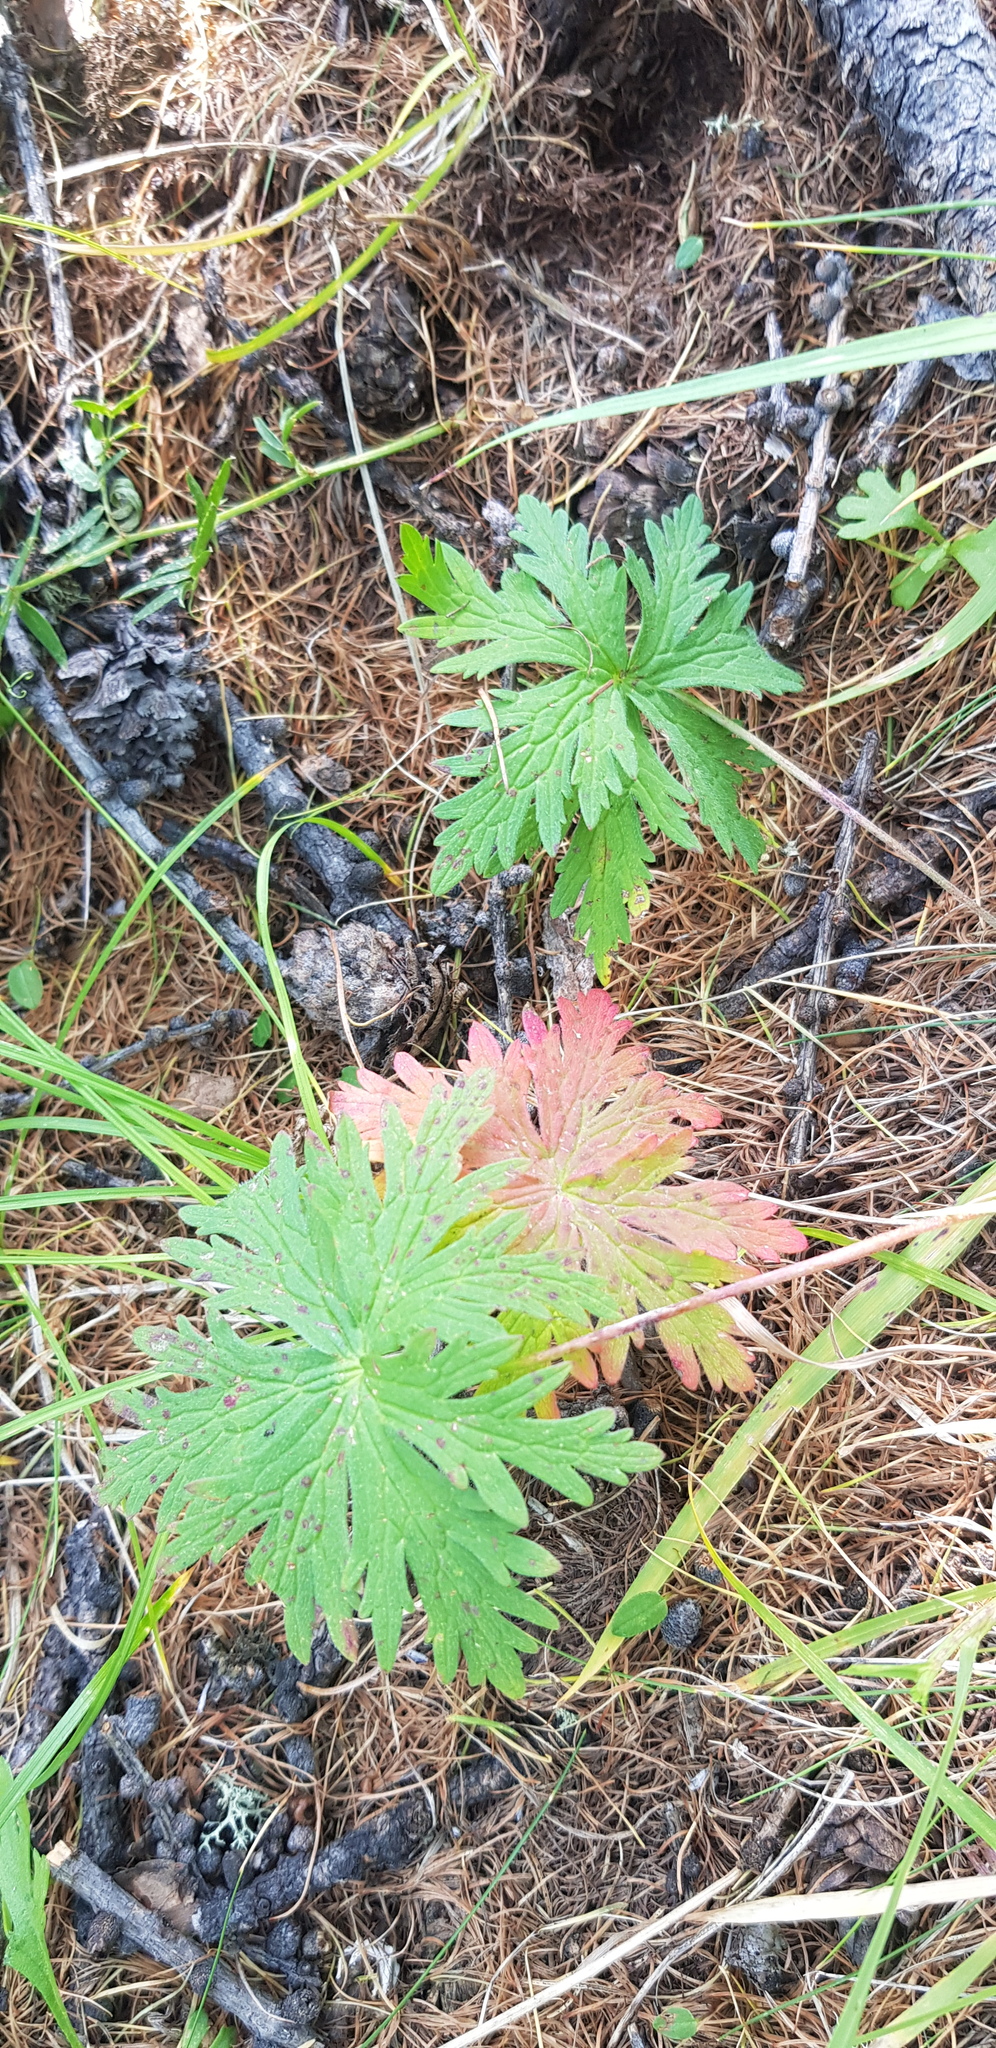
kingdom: Plantae
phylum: Tracheophyta
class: Magnoliopsida
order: Geraniales
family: Geraniaceae
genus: Geranium
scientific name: Geranium pseudosibiricum
